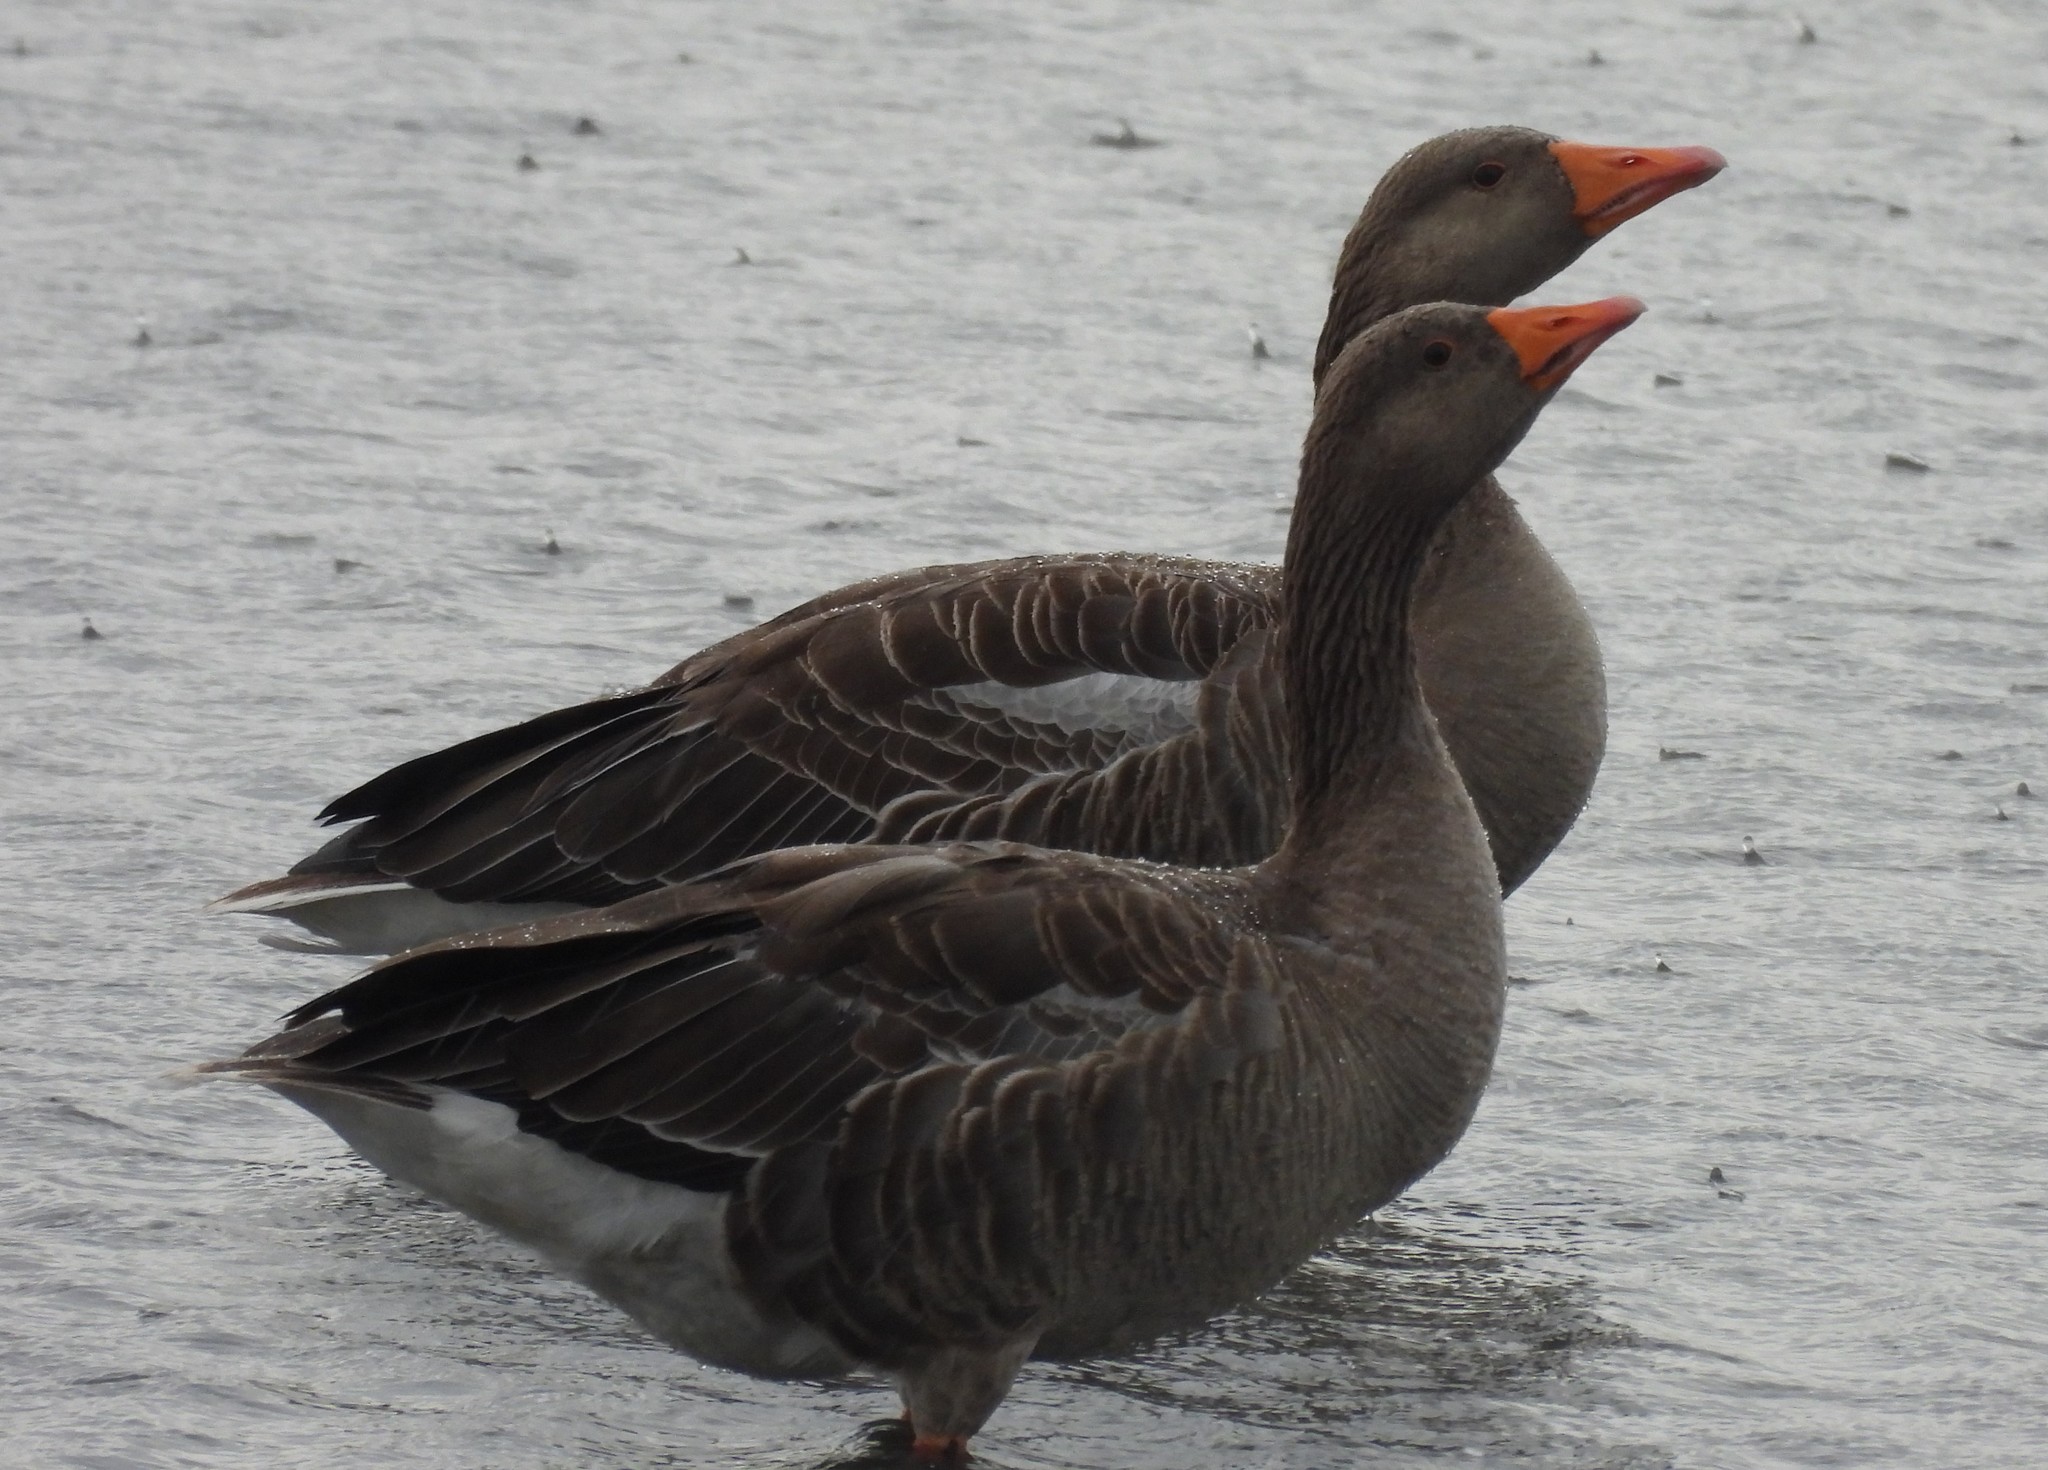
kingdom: Animalia
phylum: Chordata
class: Aves
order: Anseriformes
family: Anatidae
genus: Anser
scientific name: Anser anser
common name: Greylag goose
